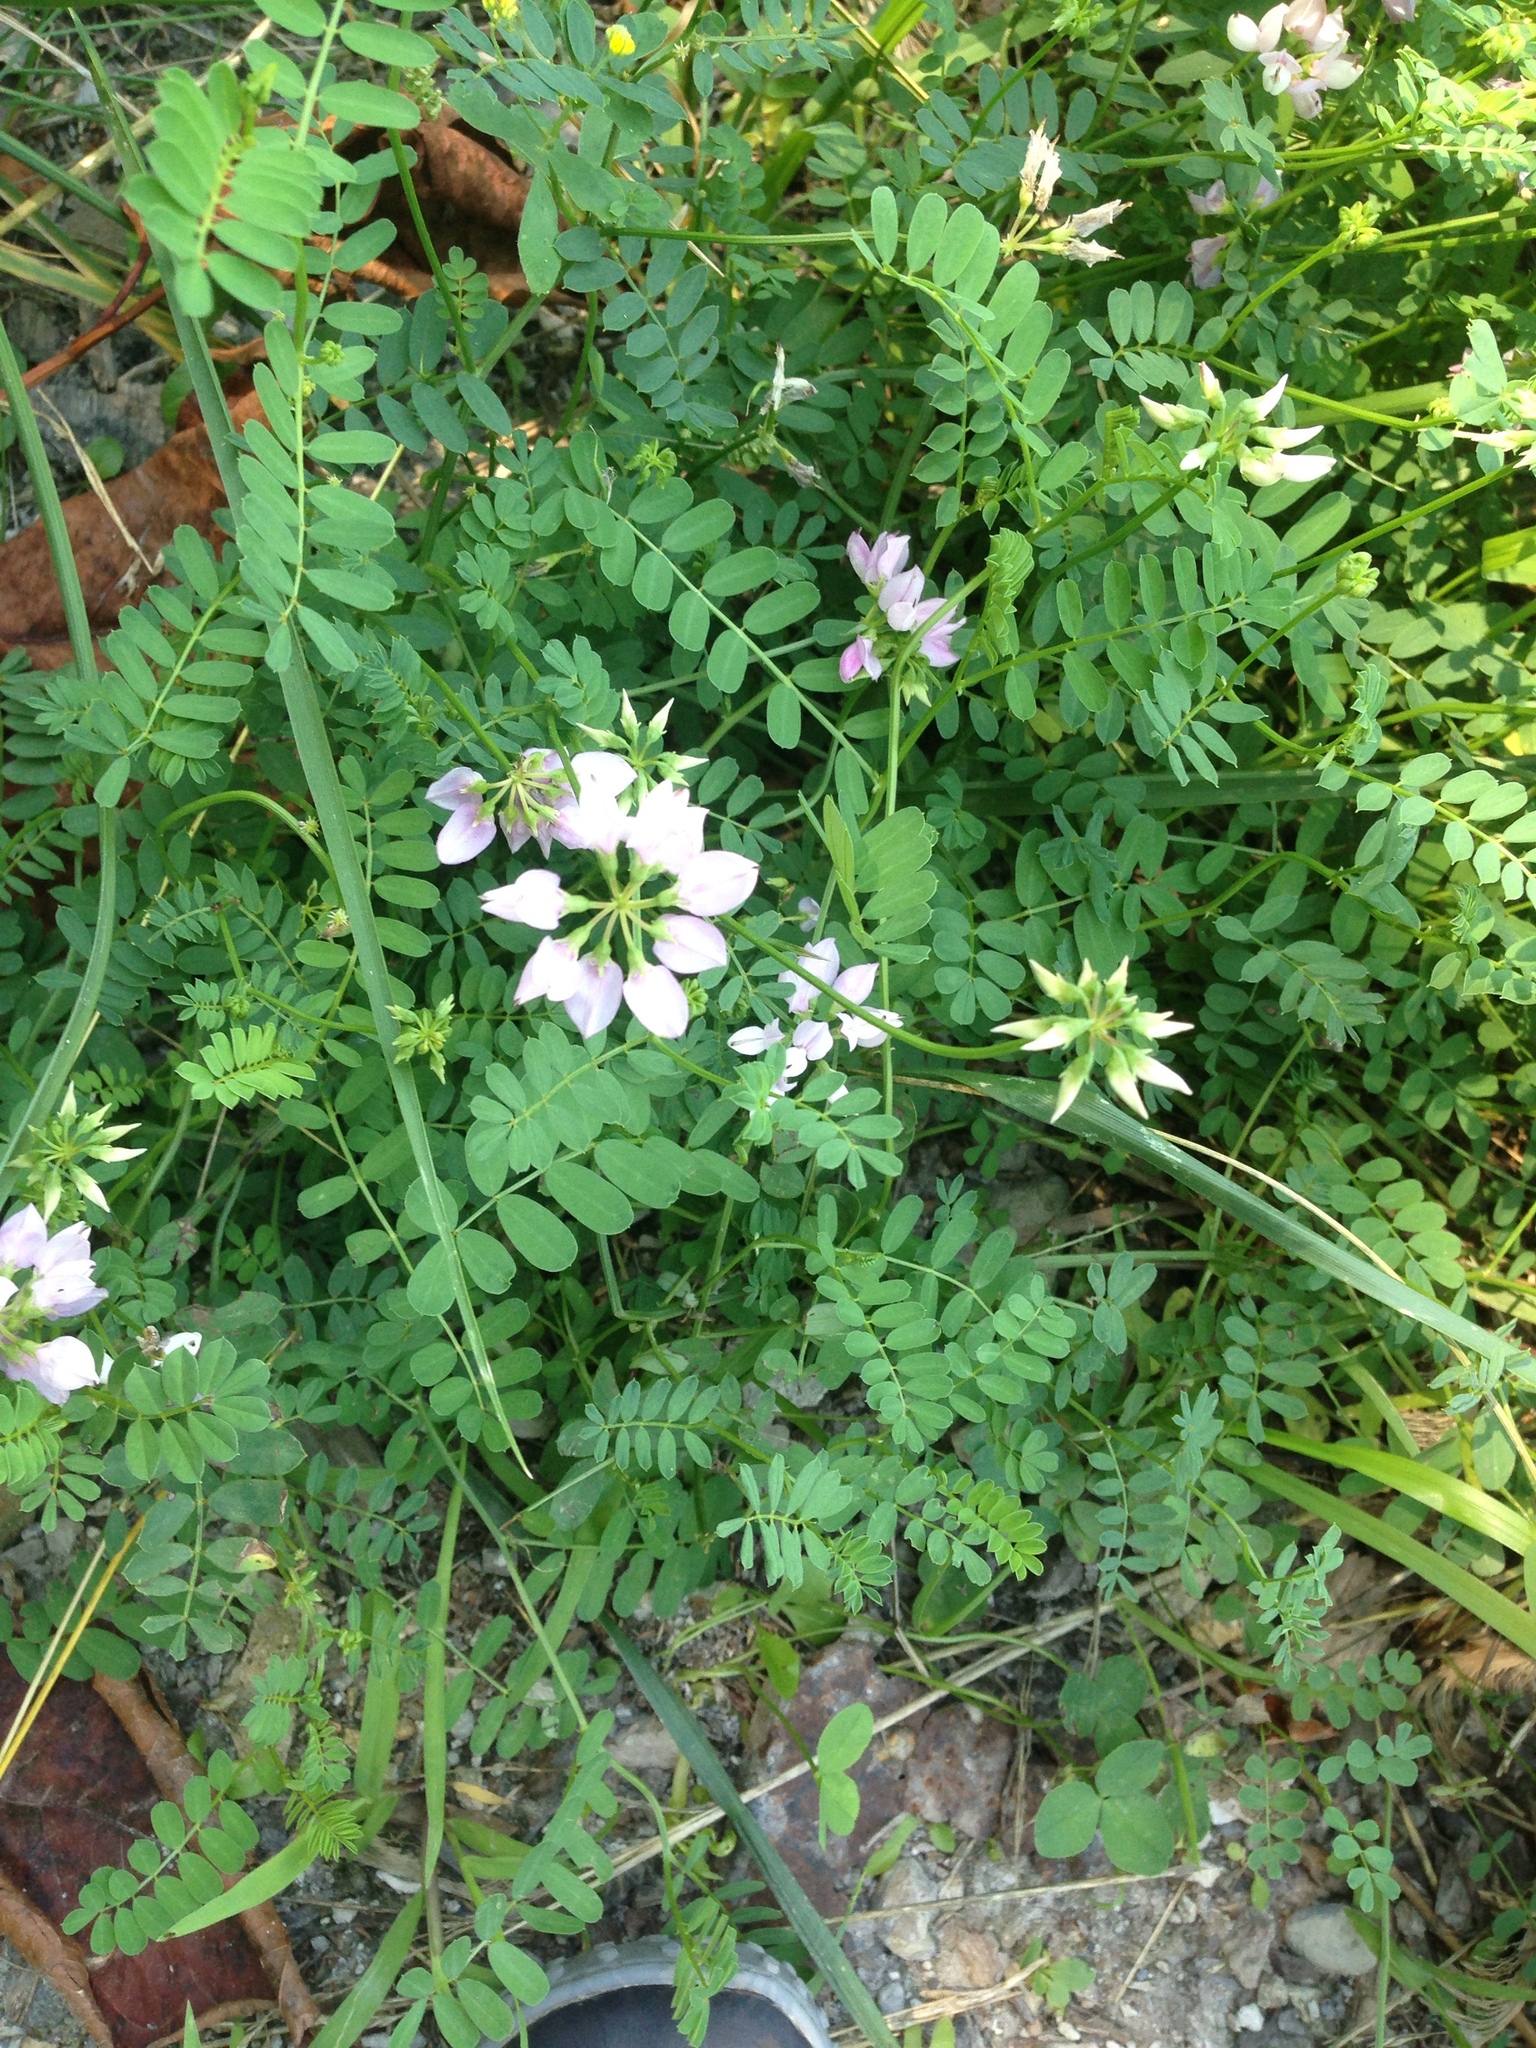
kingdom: Plantae
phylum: Tracheophyta
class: Magnoliopsida
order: Fabales
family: Fabaceae
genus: Coronilla
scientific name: Coronilla varia
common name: Crownvetch
